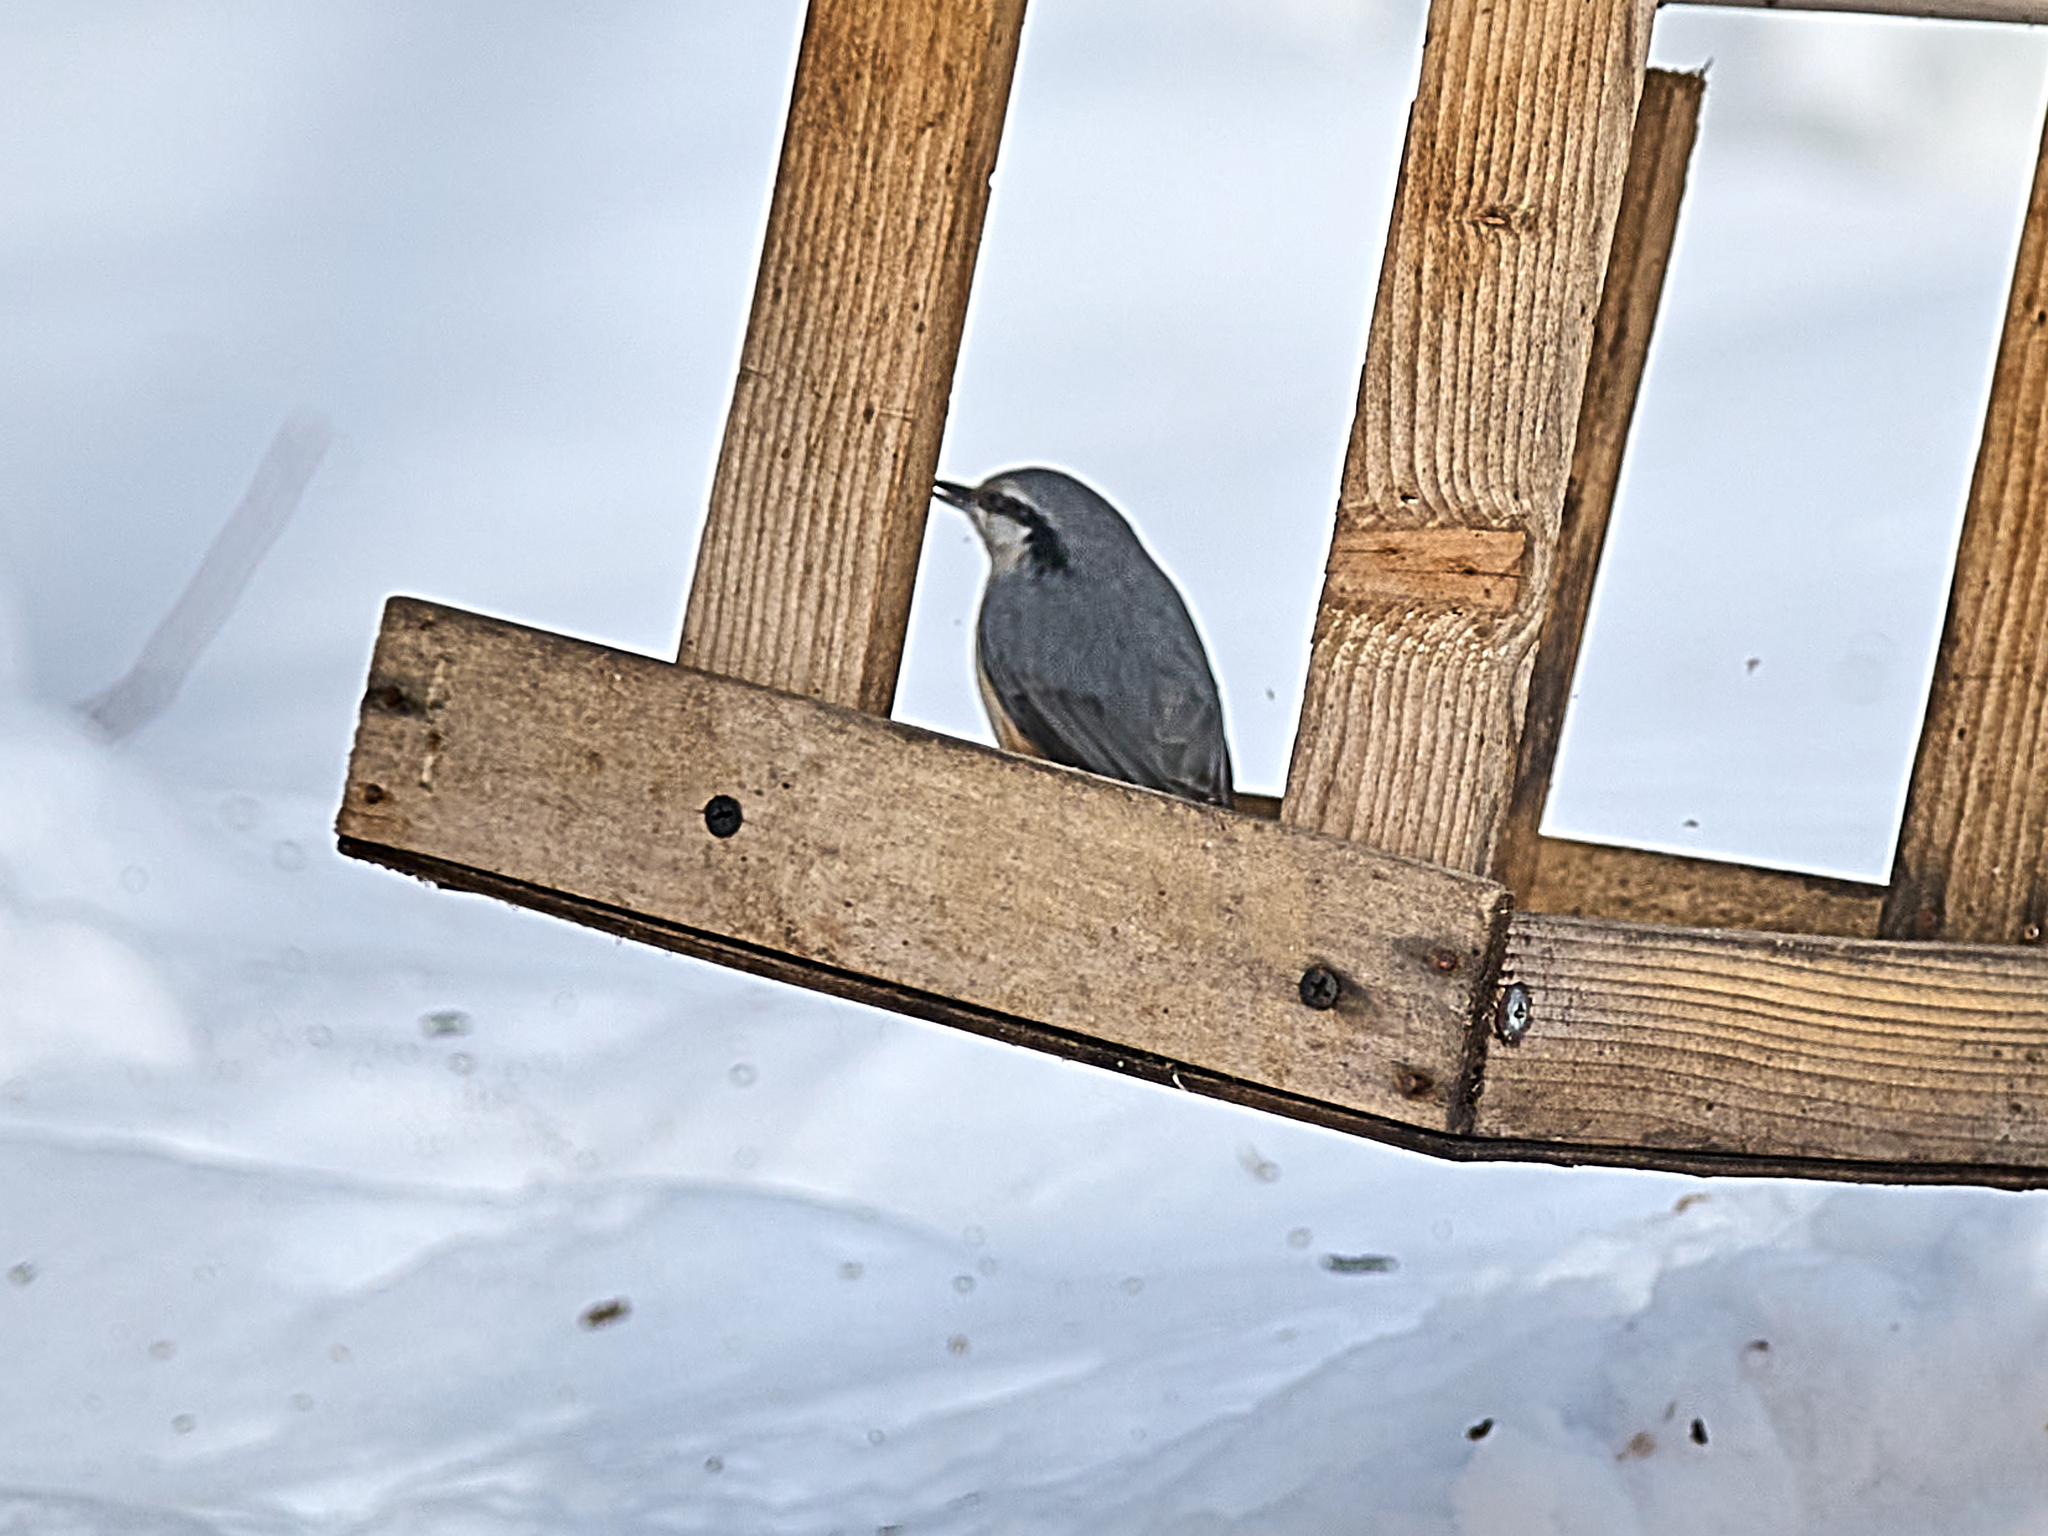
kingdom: Animalia
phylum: Chordata
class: Aves
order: Passeriformes
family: Sittidae
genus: Sitta
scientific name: Sitta europaea
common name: Eurasian nuthatch
